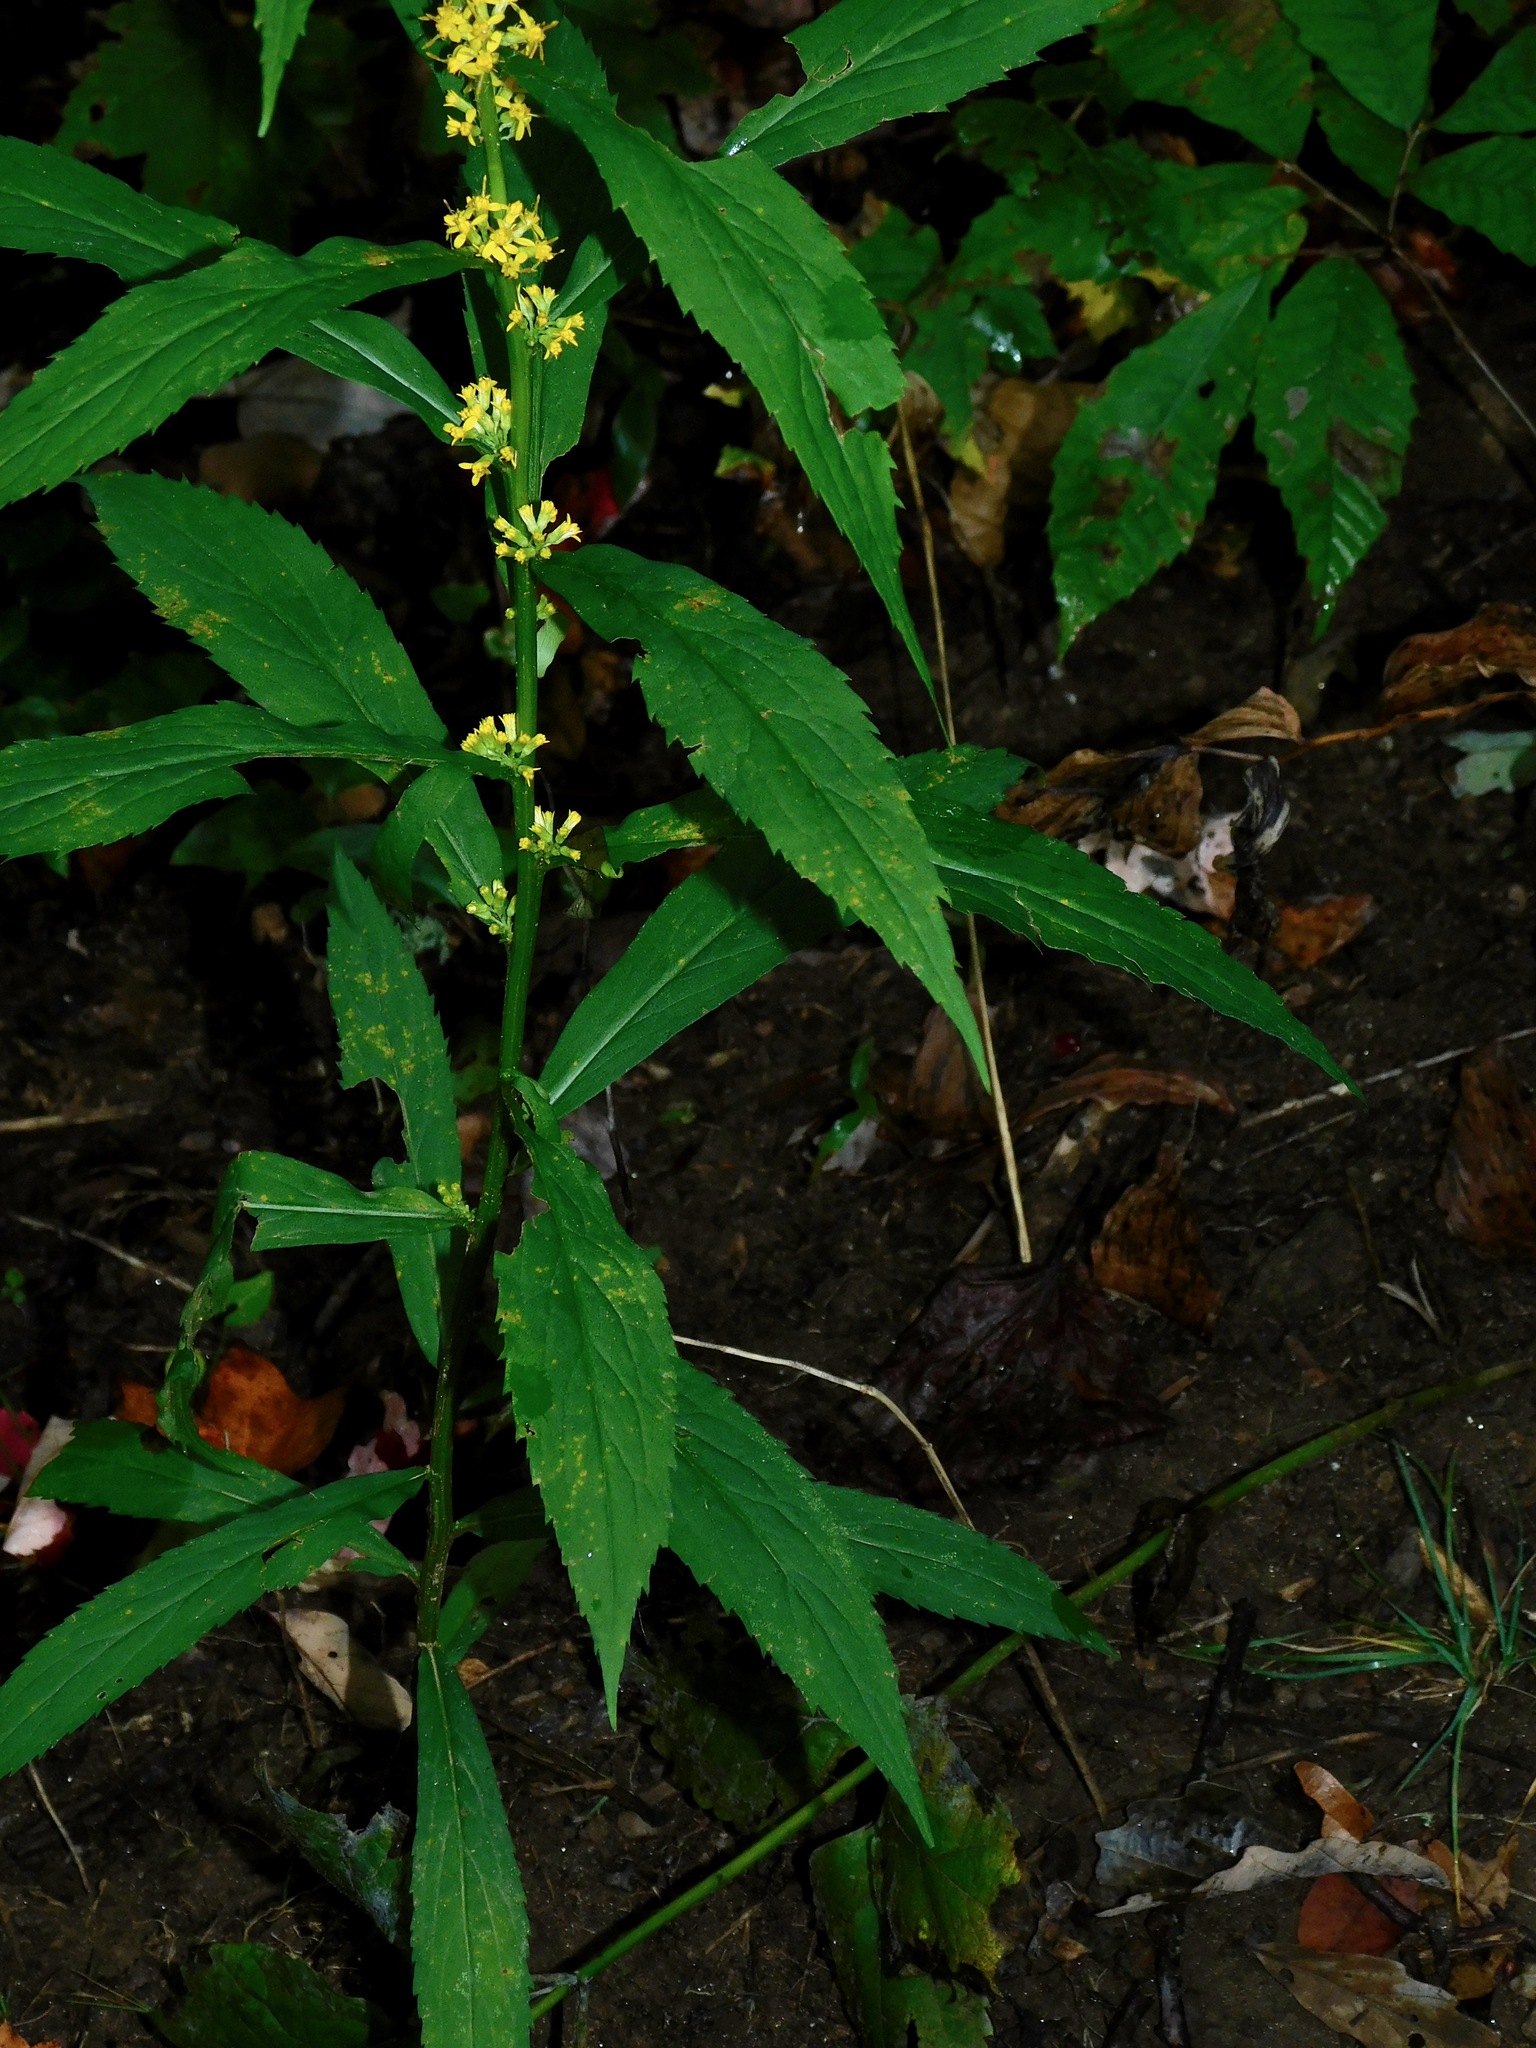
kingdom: Plantae
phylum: Tracheophyta
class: Magnoliopsida
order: Asterales
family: Asteraceae
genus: Solidago
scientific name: Solidago caesia
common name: Woodland goldenrod
